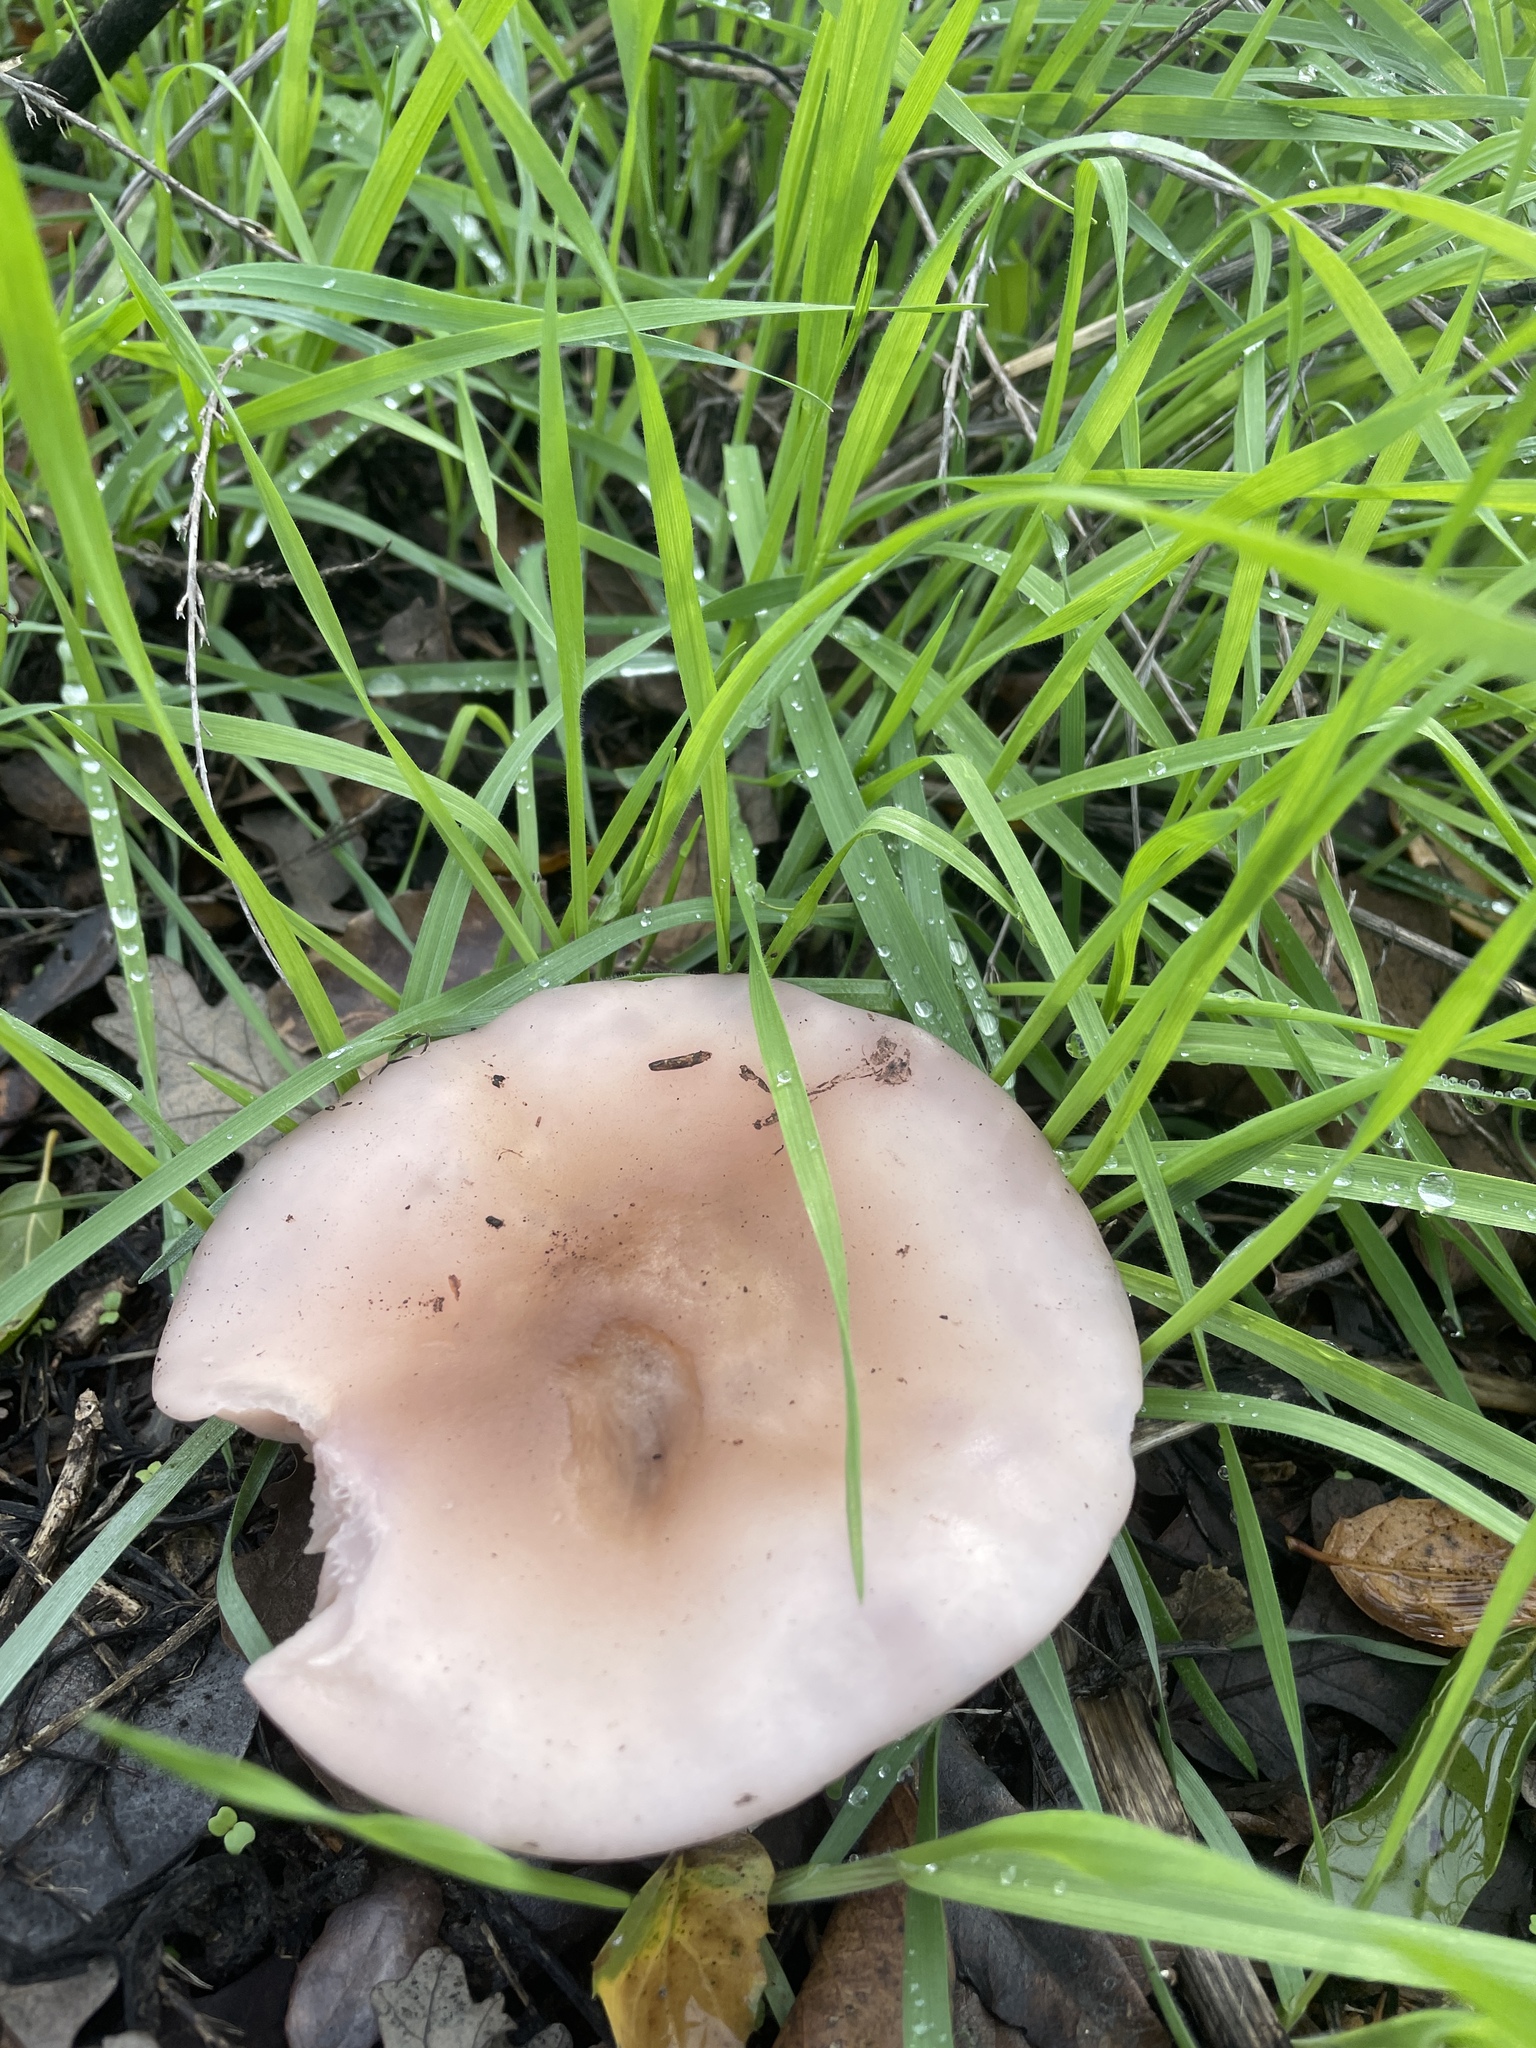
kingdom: Fungi
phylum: Basidiomycota
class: Agaricomycetes
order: Agaricales
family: Tricholomataceae
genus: Collybia
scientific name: Collybia
